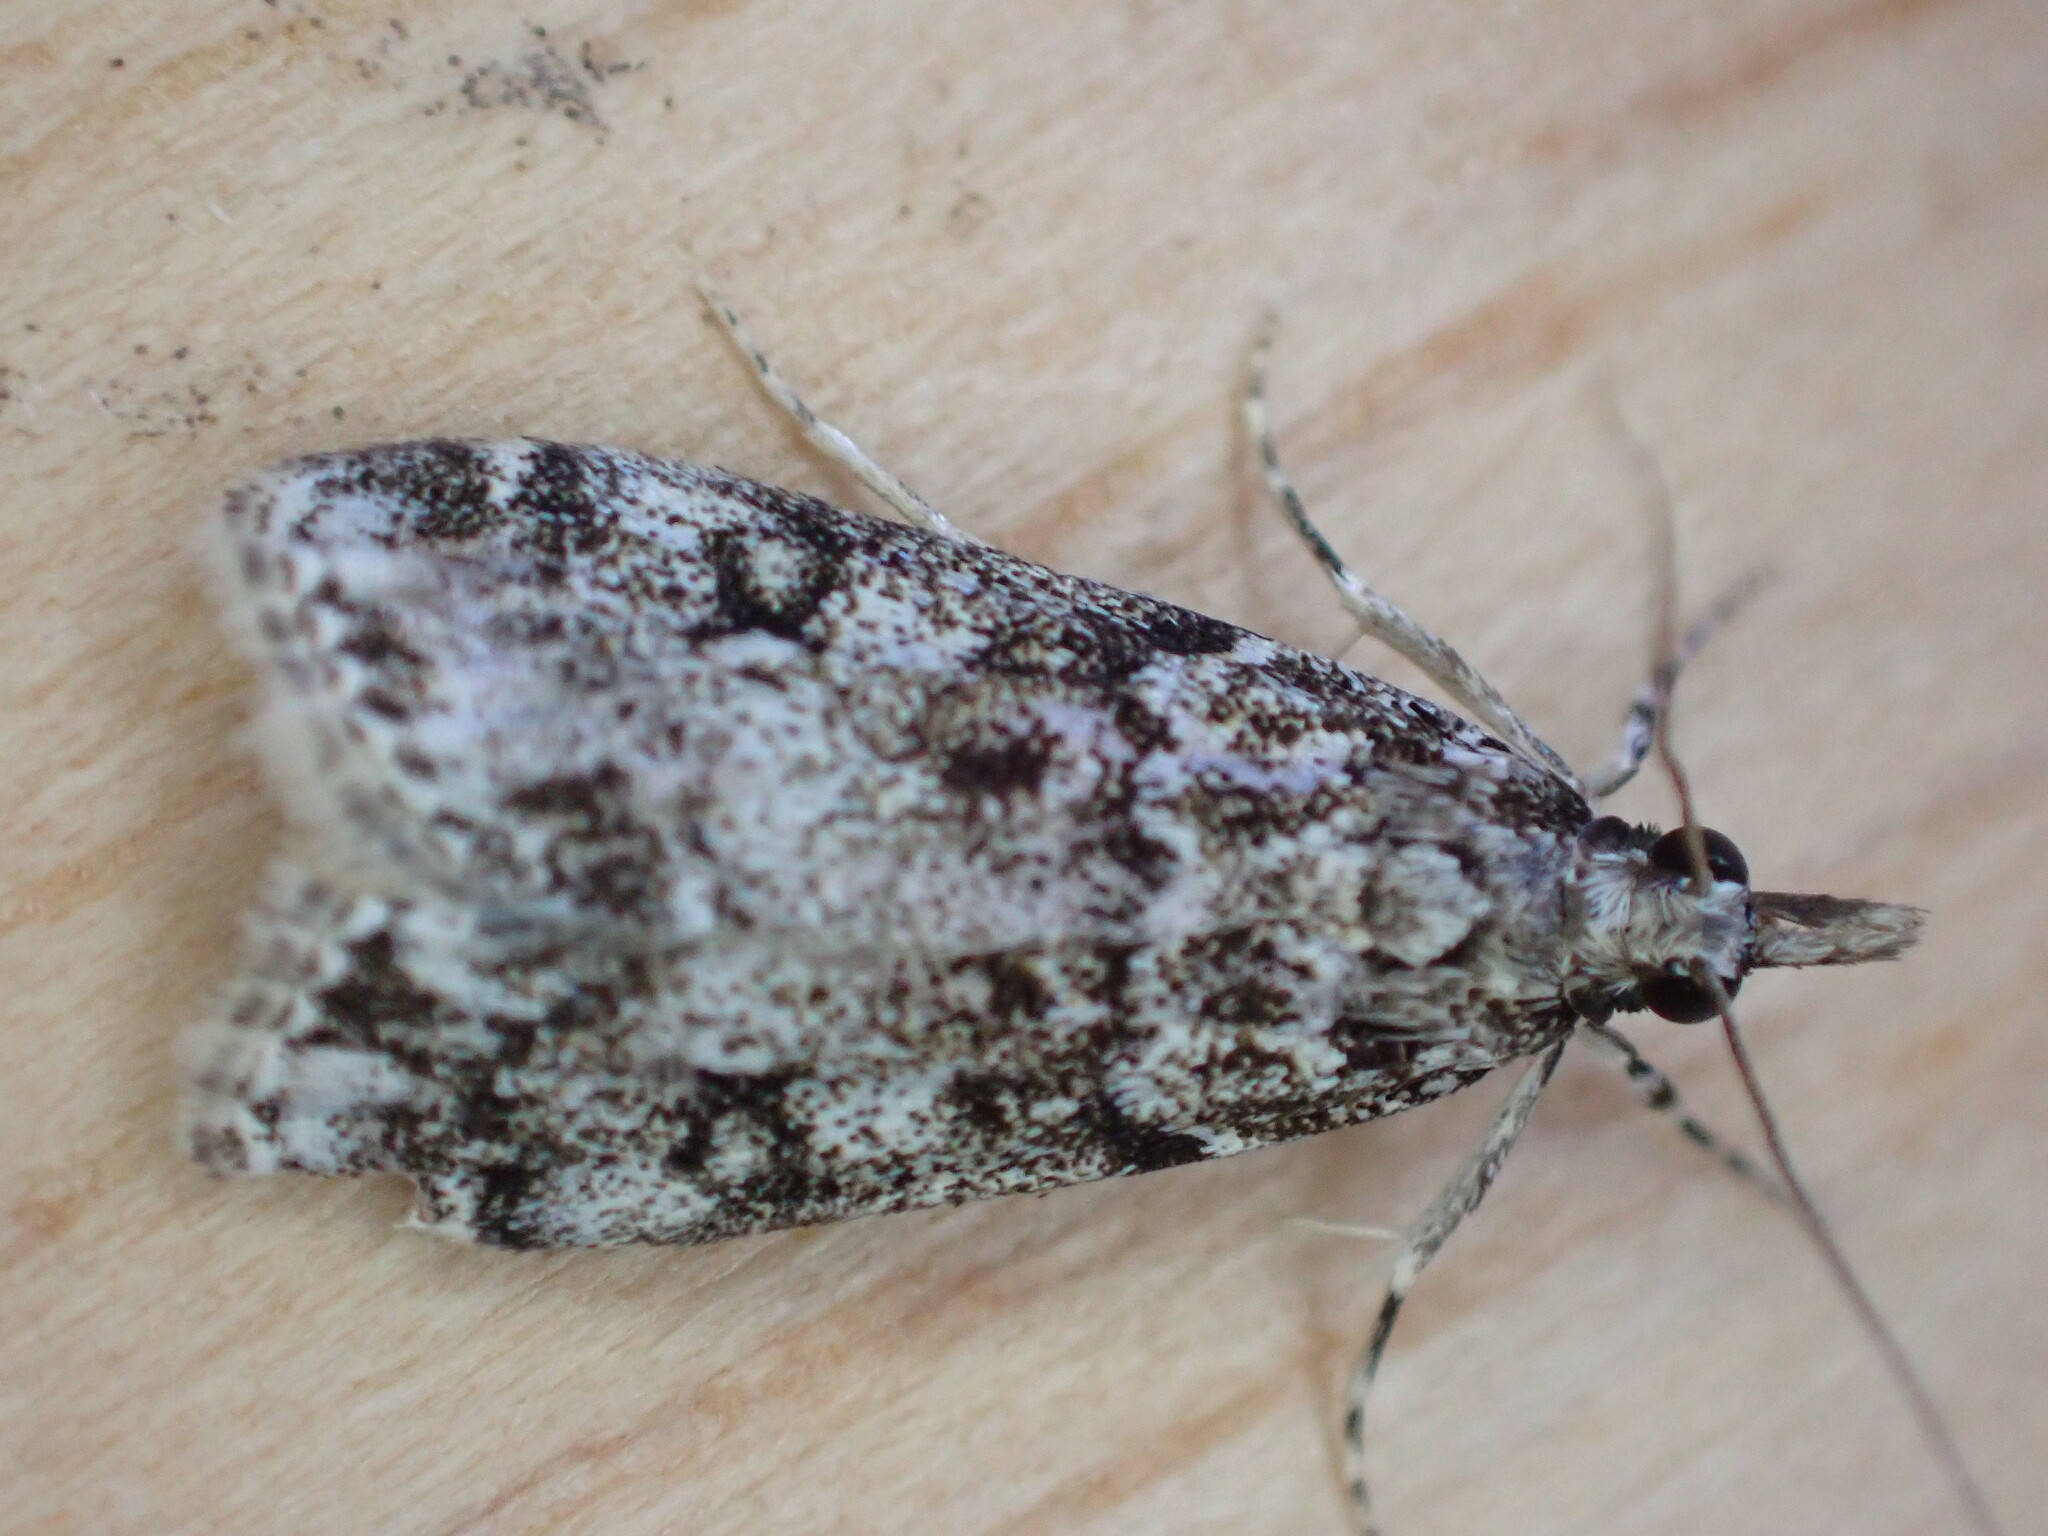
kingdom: Animalia
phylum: Arthropoda
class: Insecta
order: Lepidoptera
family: Crambidae
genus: Eudonia
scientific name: Eudonia lacustrata
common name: Little grey
